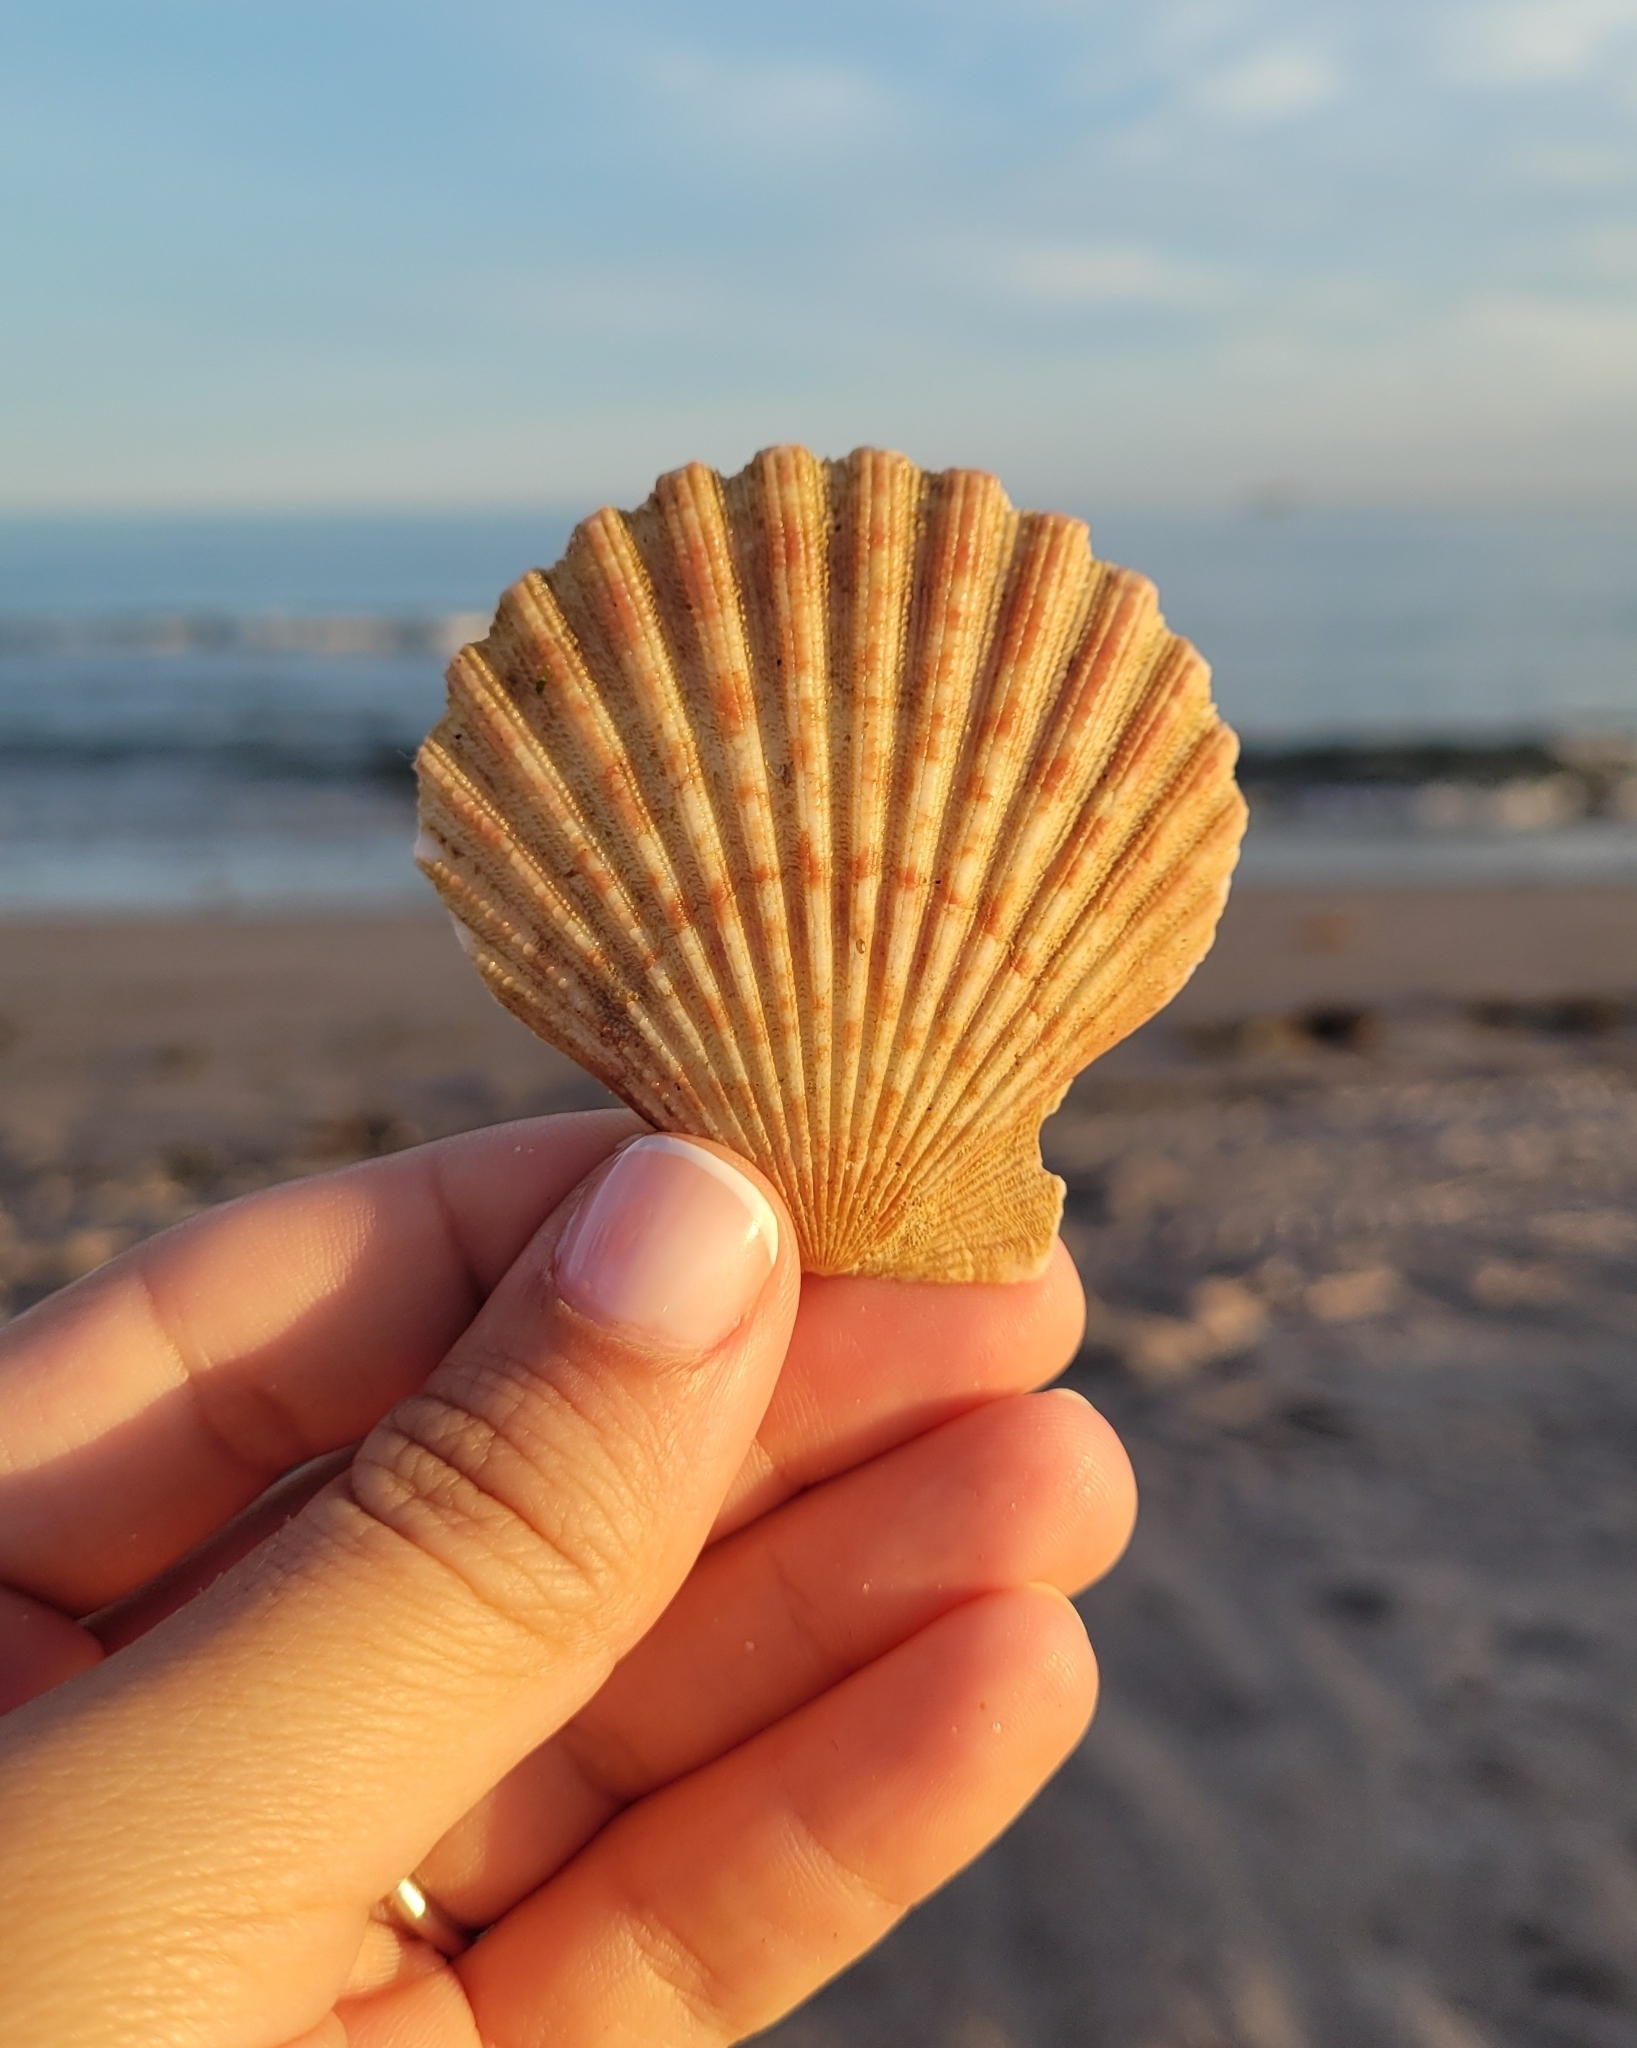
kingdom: Animalia
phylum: Mollusca
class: Bivalvia
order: Pectinida
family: Pectinidae
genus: Aequipecten
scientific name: Aequipecten tehuelchus
